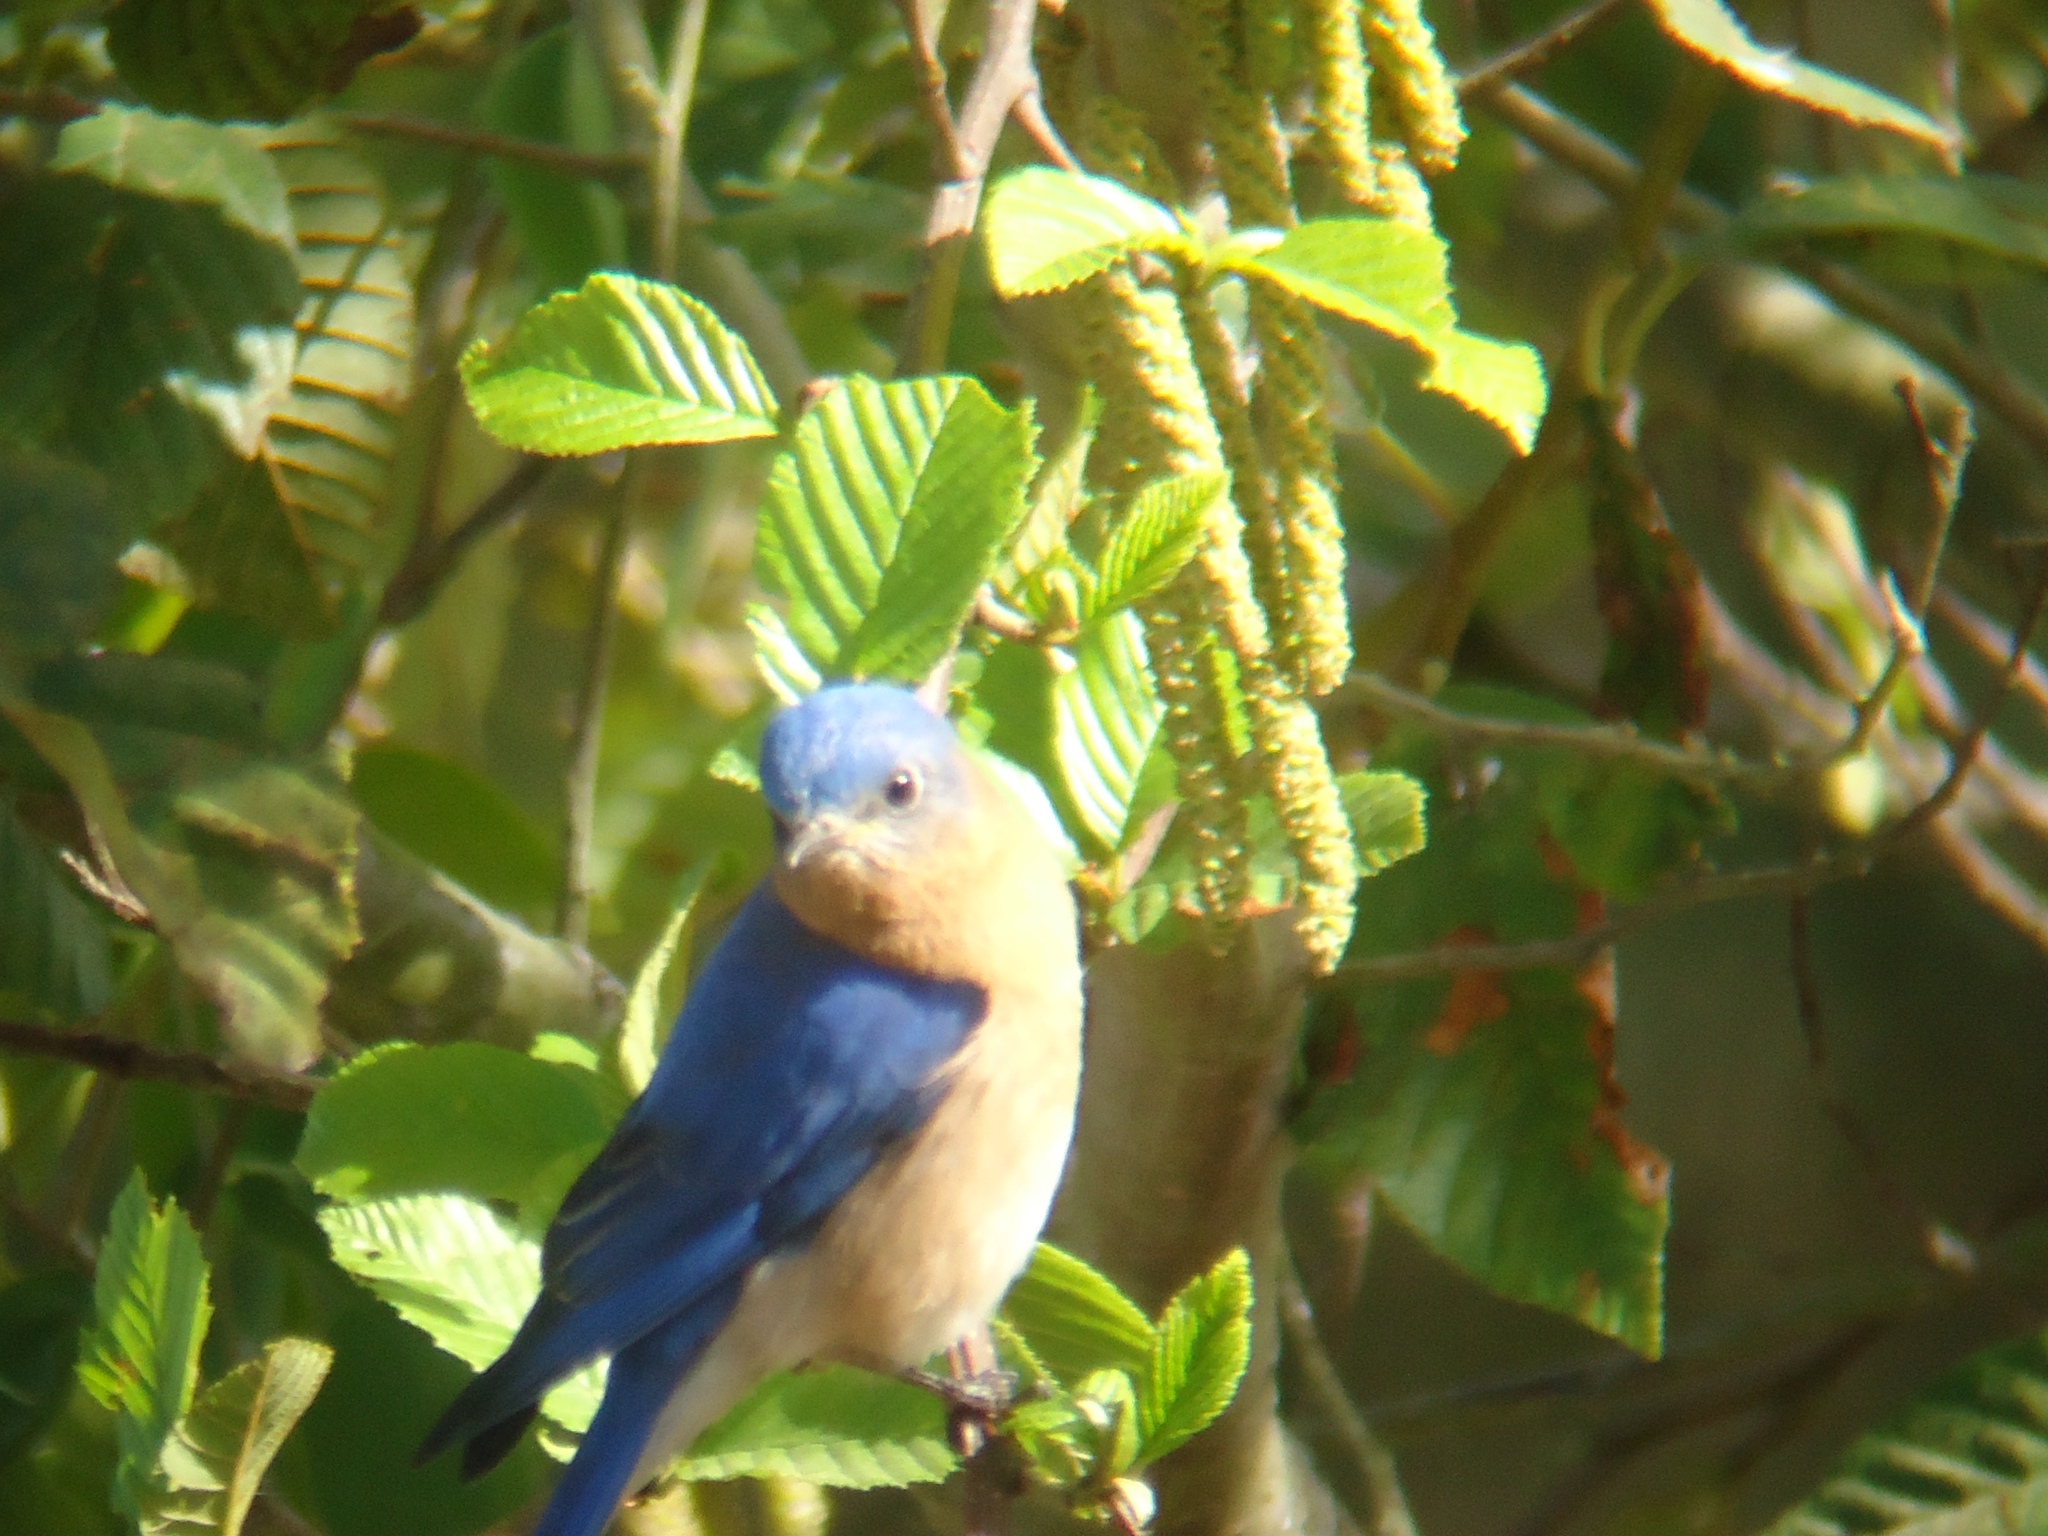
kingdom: Animalia
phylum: Chordata
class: Aves
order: Passeriformes
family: Turdidae
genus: Sialia
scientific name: Sialia sialis
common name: Eastern bluebird
